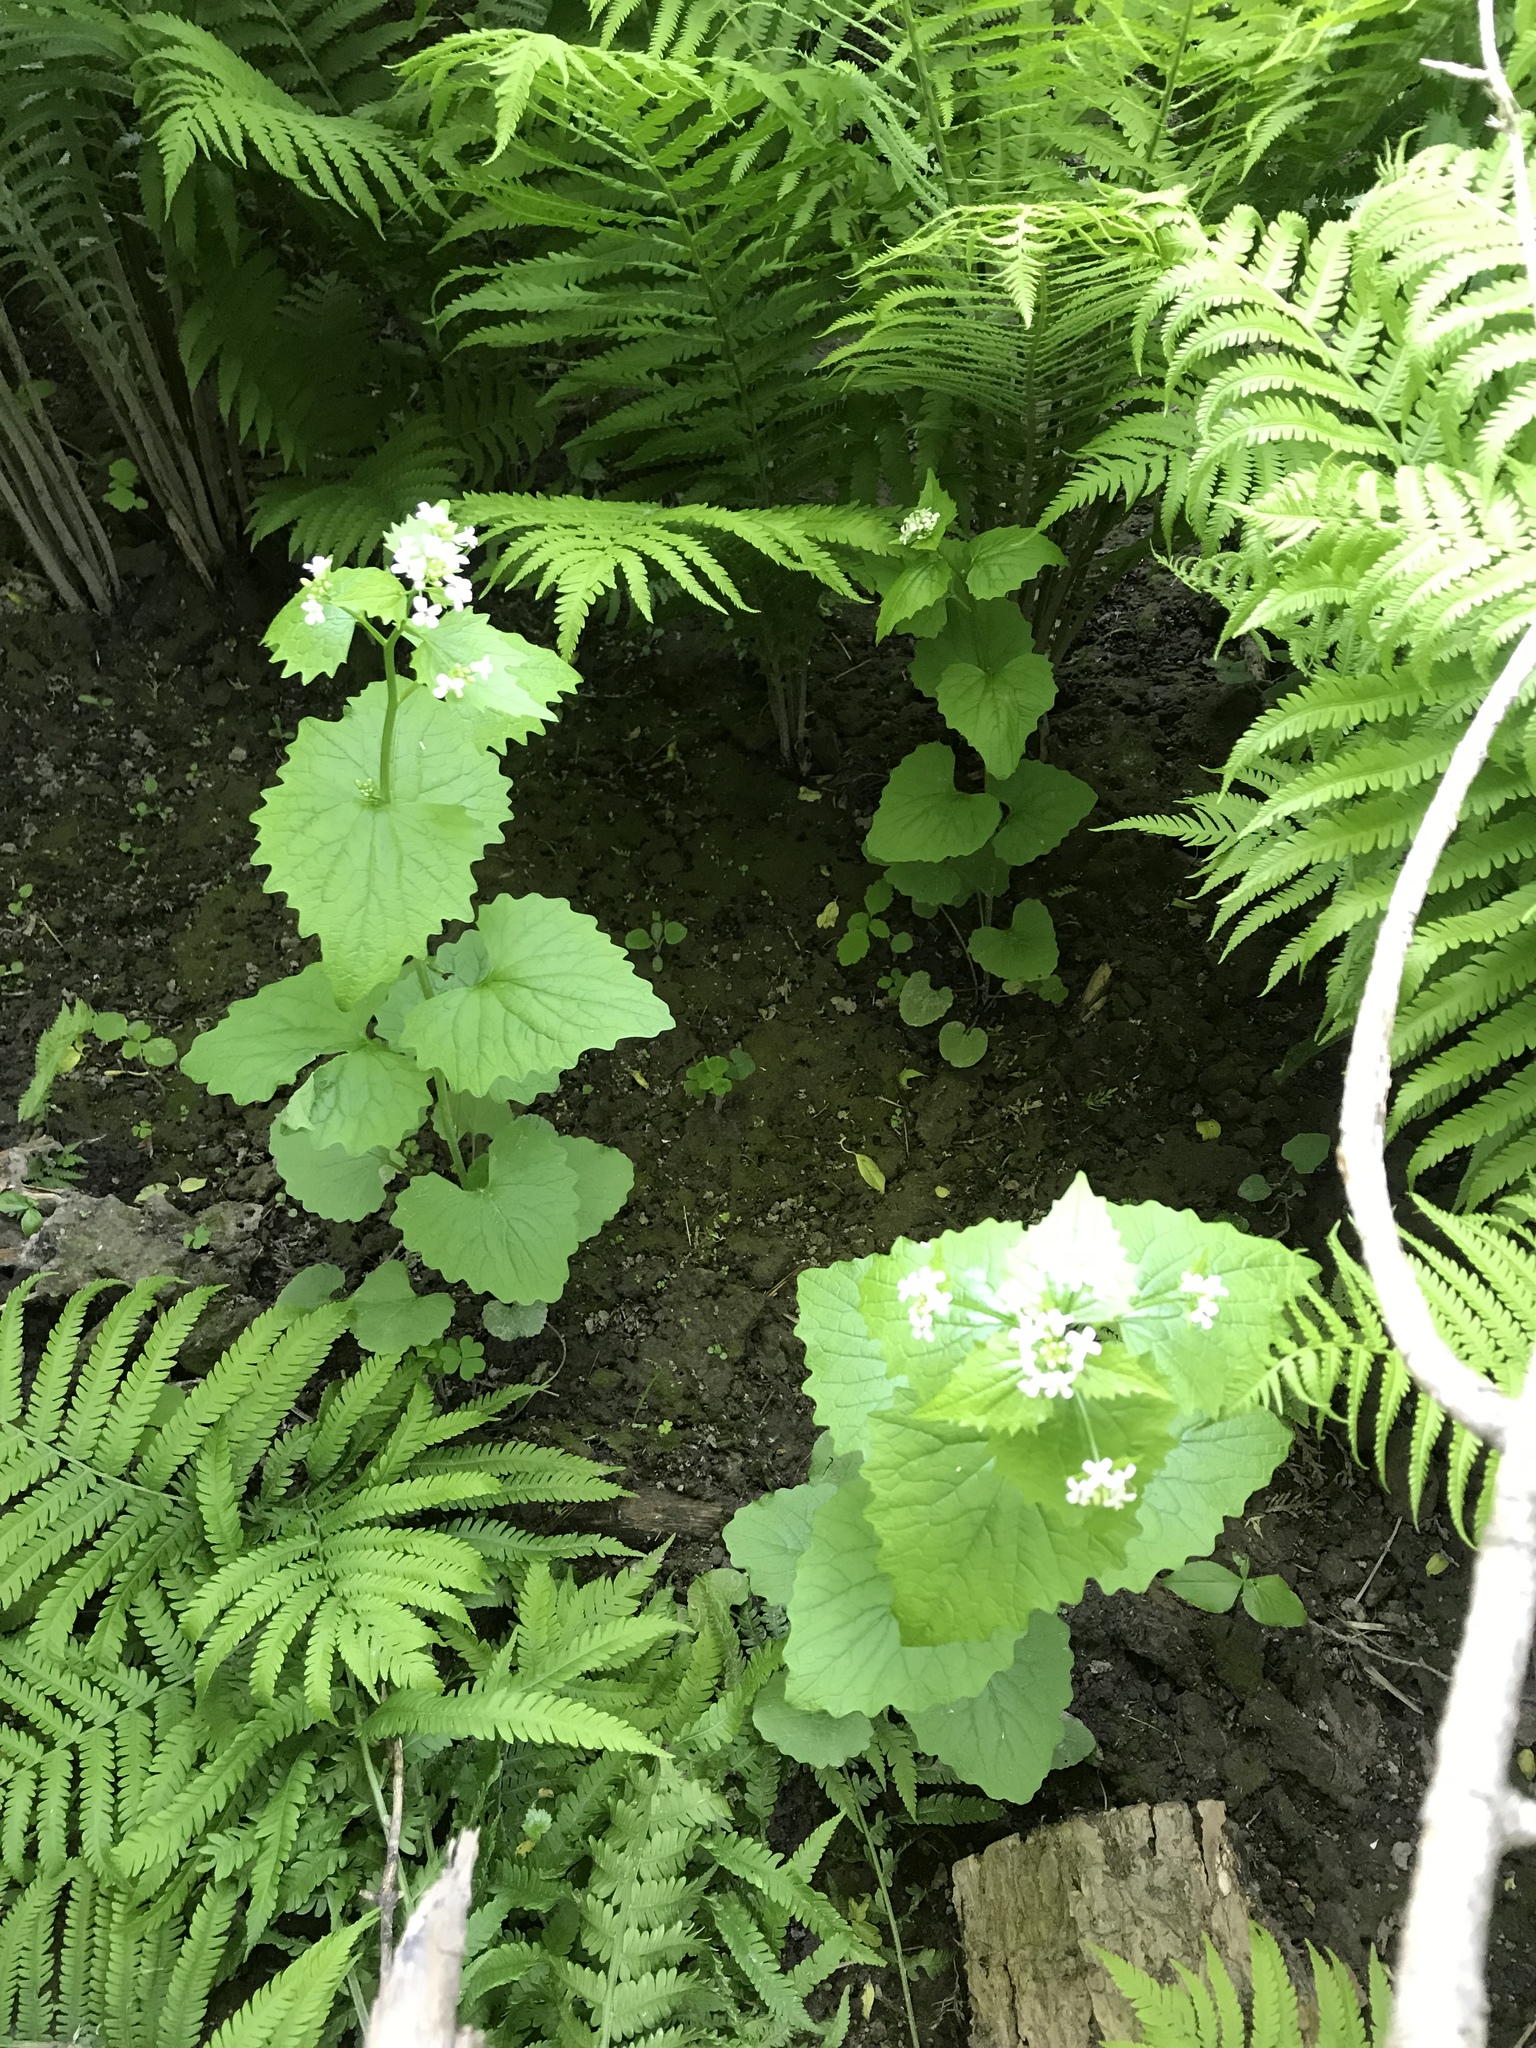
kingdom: Plantae
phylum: Tracheophyta
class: Magnoliopsida
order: Brassicales
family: Brassicaceae
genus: Alliaria
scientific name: Alliaria petiolata
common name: Garlic mustard
